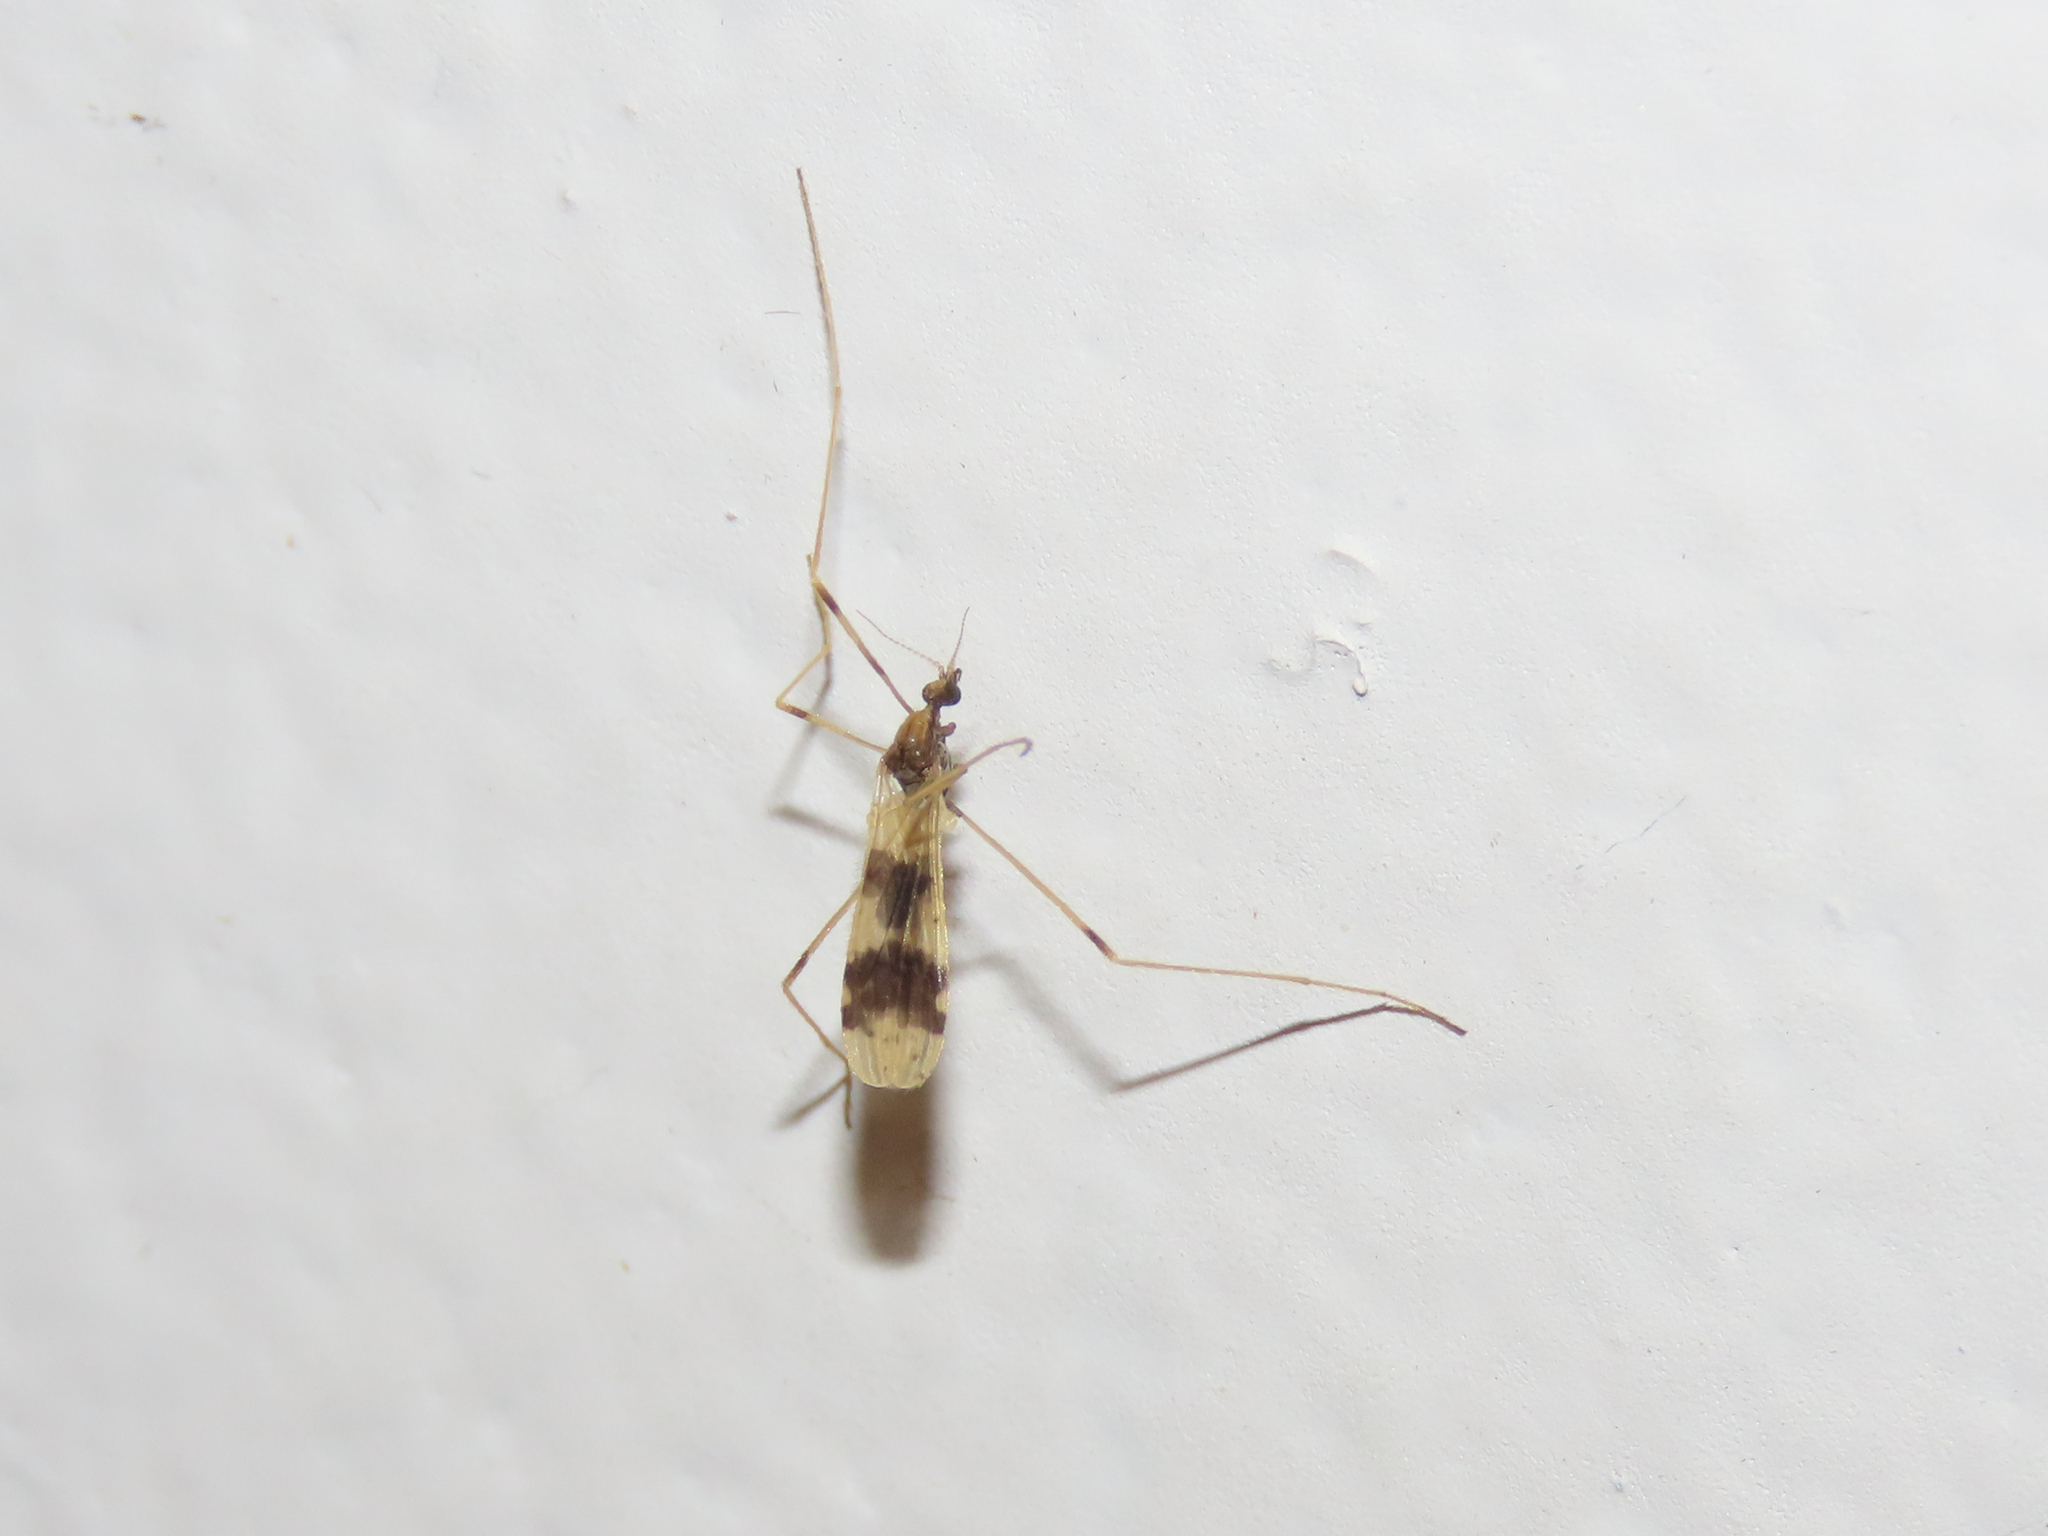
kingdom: Animalia
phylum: Arthropoda
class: Insecta
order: Diptera
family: Limoniidae
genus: Ilisia
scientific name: Ilisia venusta
